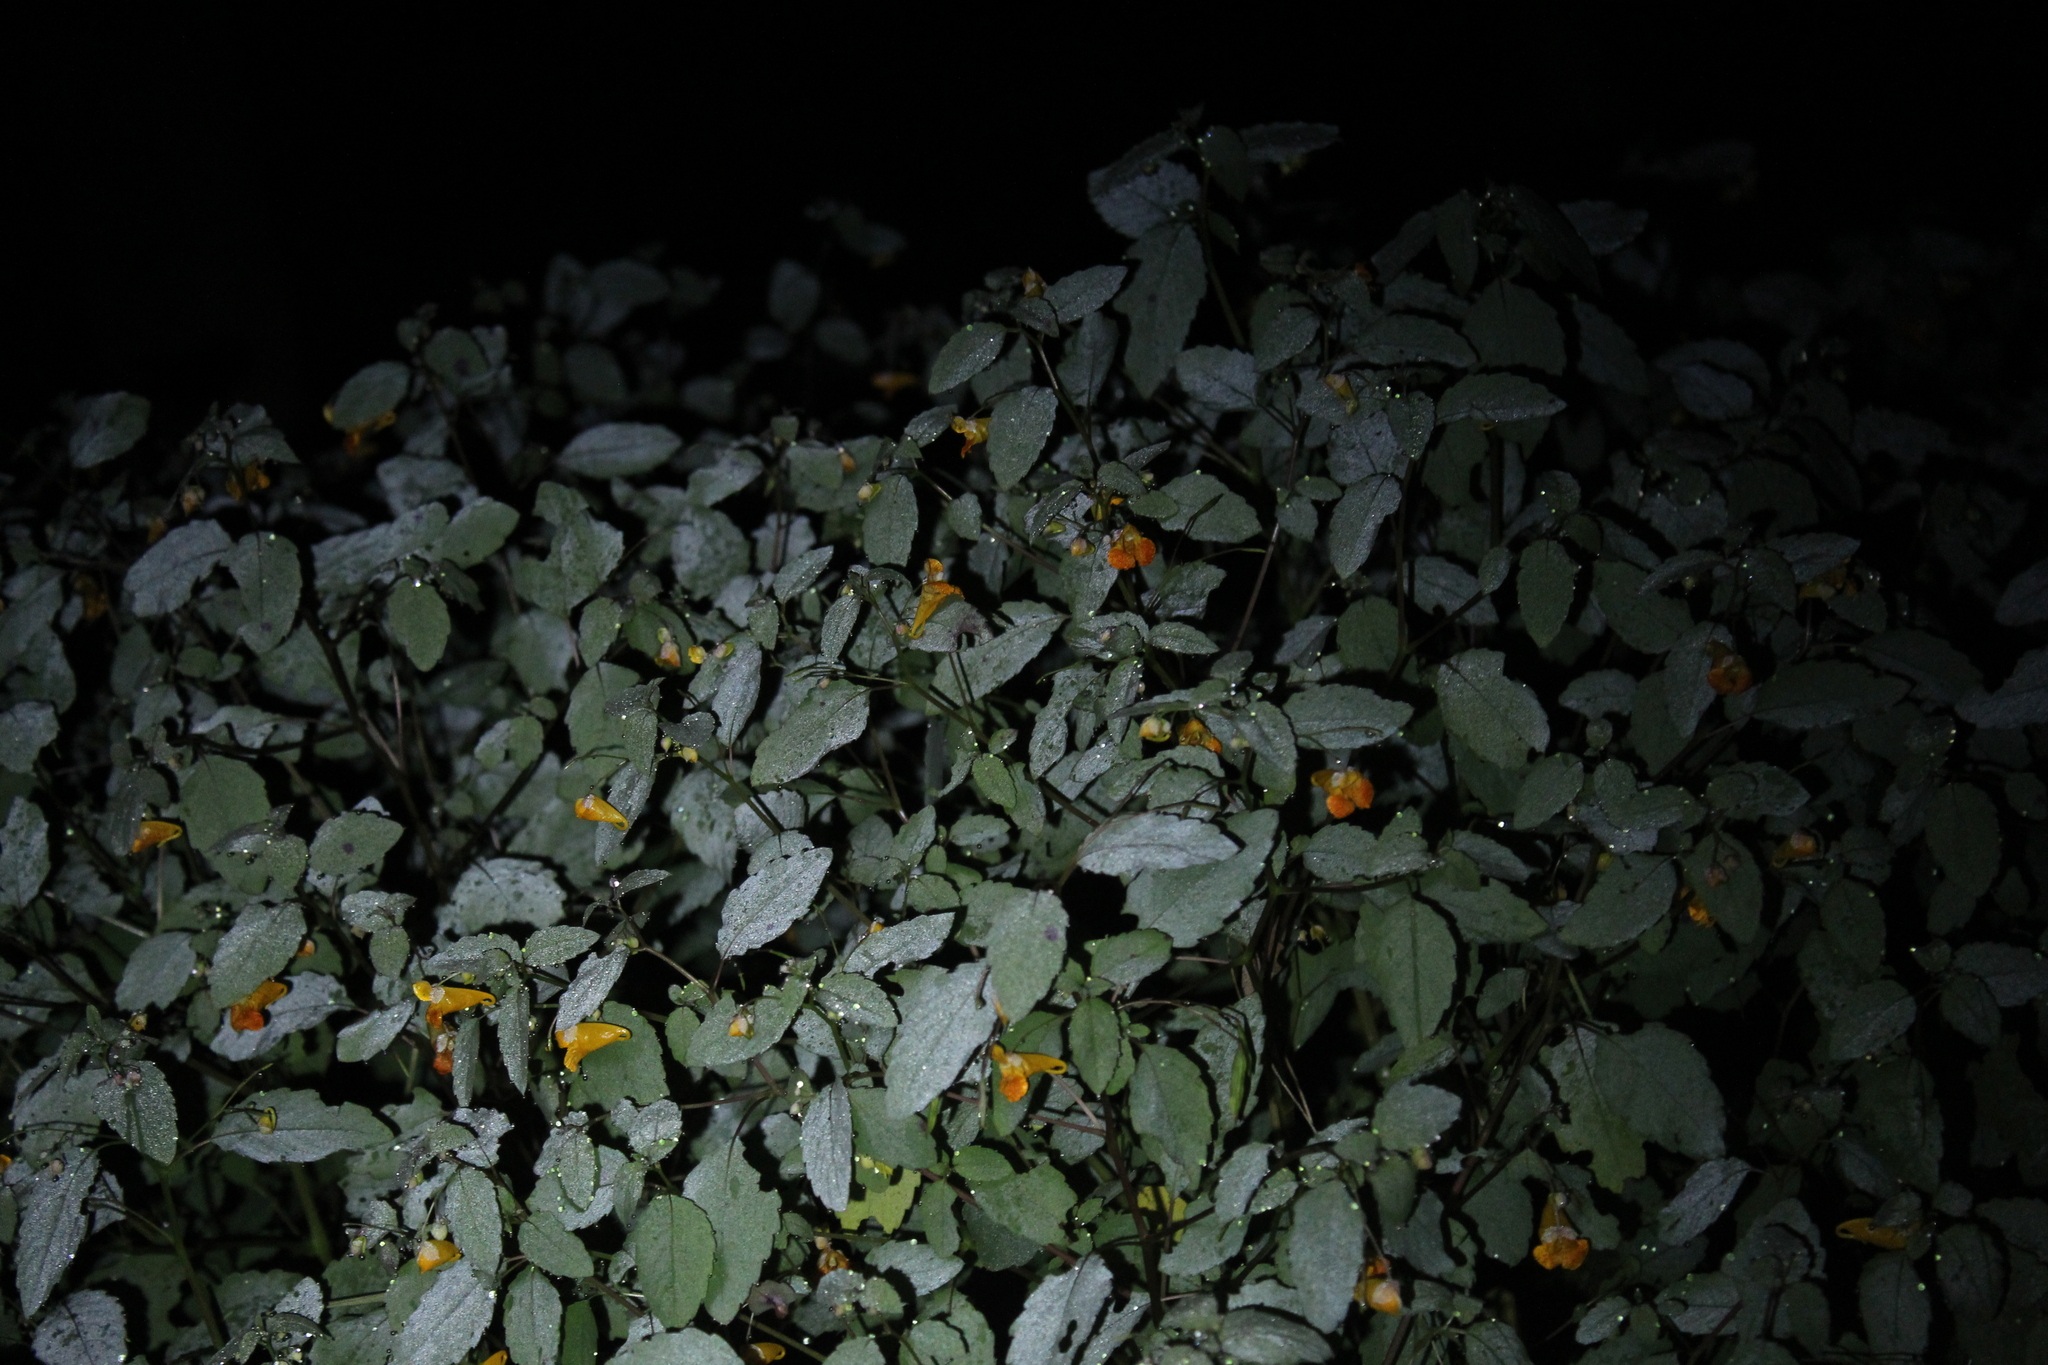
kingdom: Plantae
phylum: Tracheophyta
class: Magnoliopsida
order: Ericales
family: Balsaminaceae
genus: Impatiens
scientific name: Impatiens capensis
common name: Orange balsam
